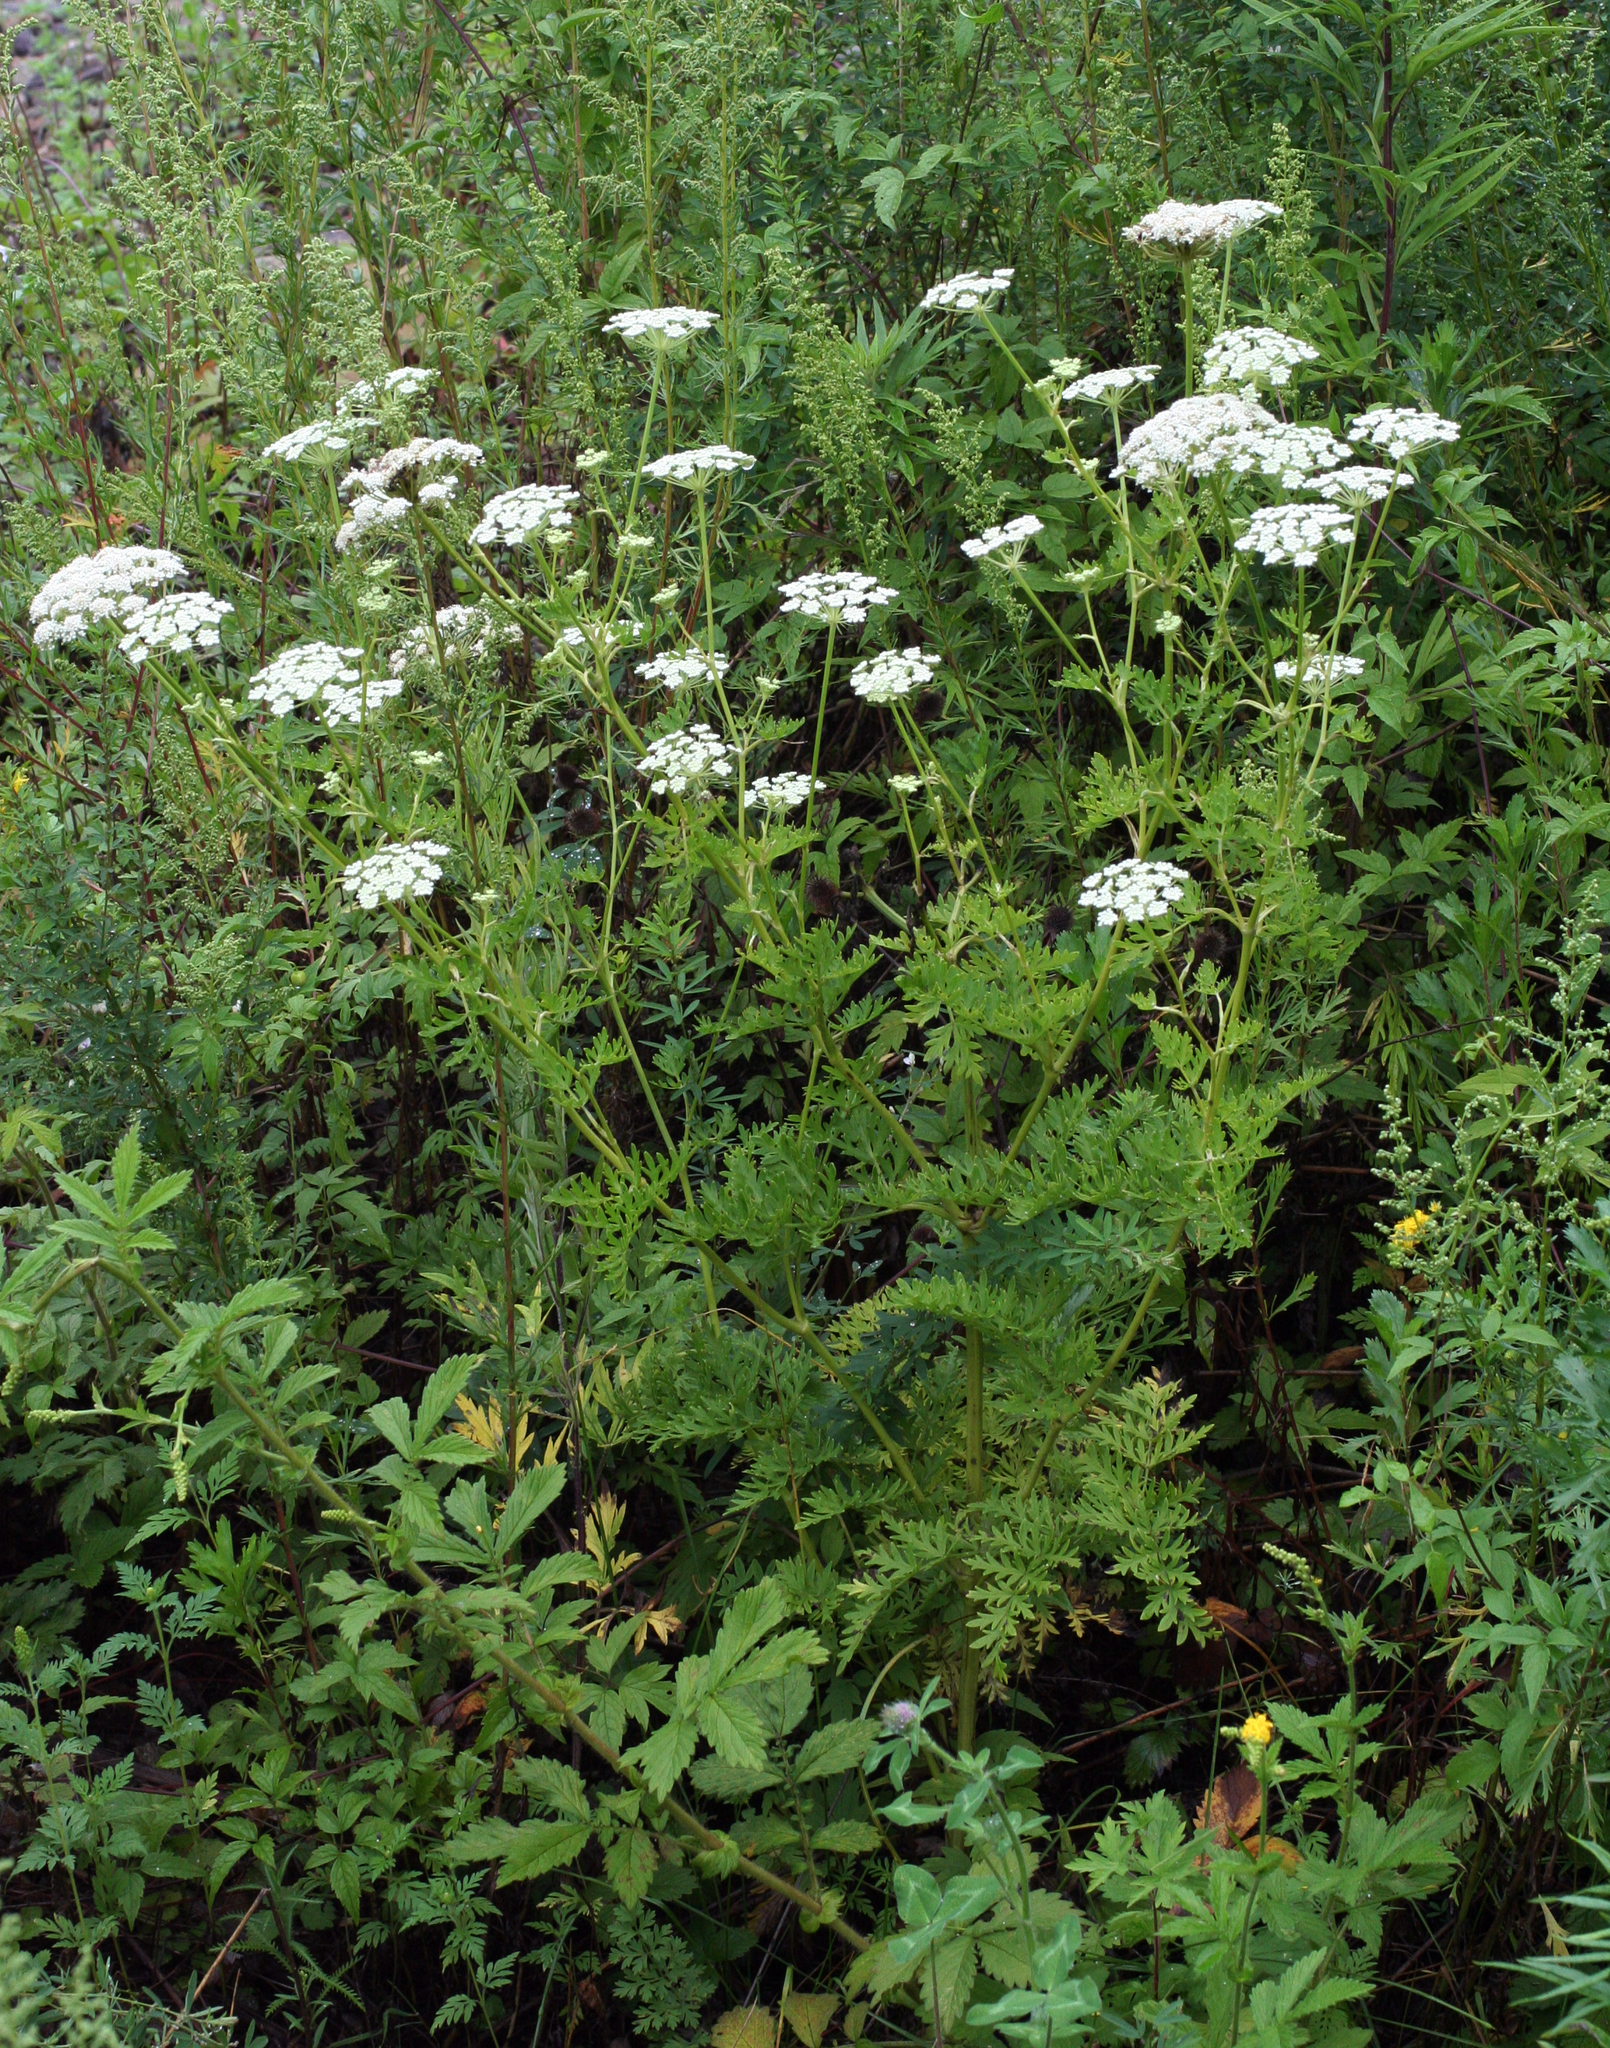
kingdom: Plantae
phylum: Tracheophyta
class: Magnoliopsida
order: Apiales
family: Apiaceae
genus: Seseli
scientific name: Seseli seseloides
